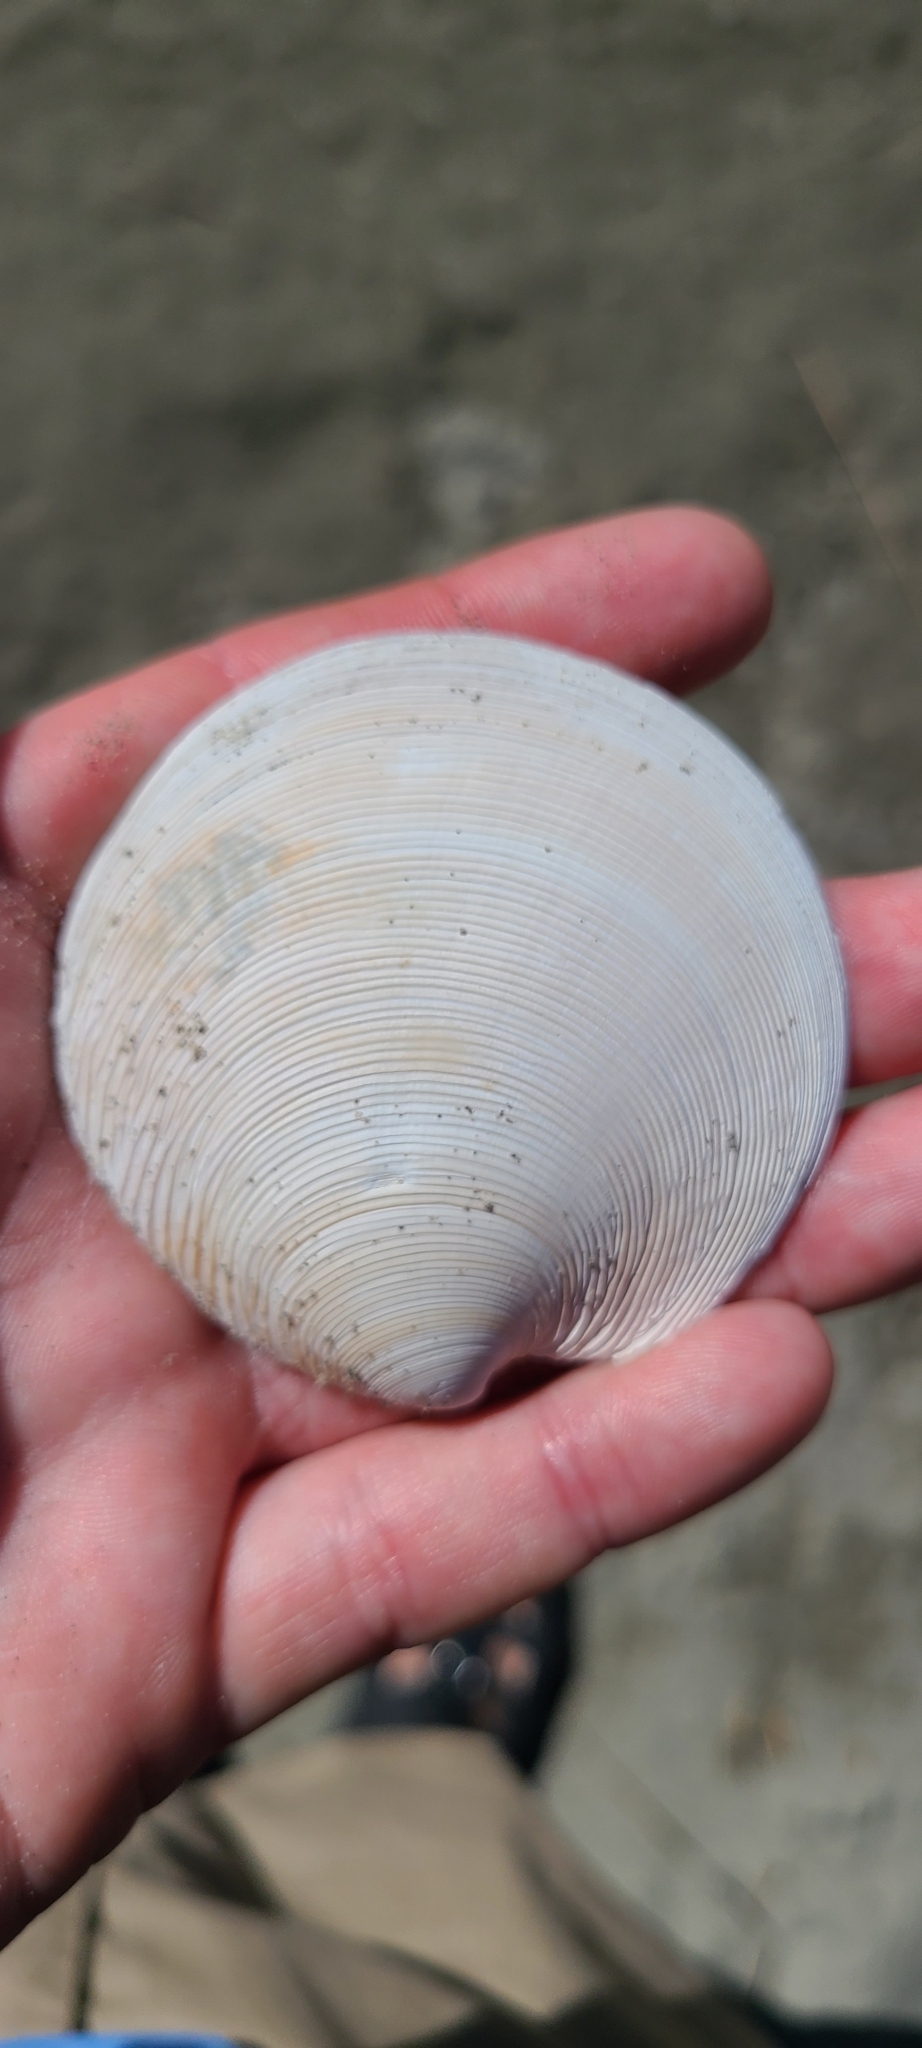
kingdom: Animalia
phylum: Mollusca
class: Bivalvia
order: Venerida
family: Veneridae
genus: Dosinia
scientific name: Dosinia anus
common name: Old-woman dosinia
